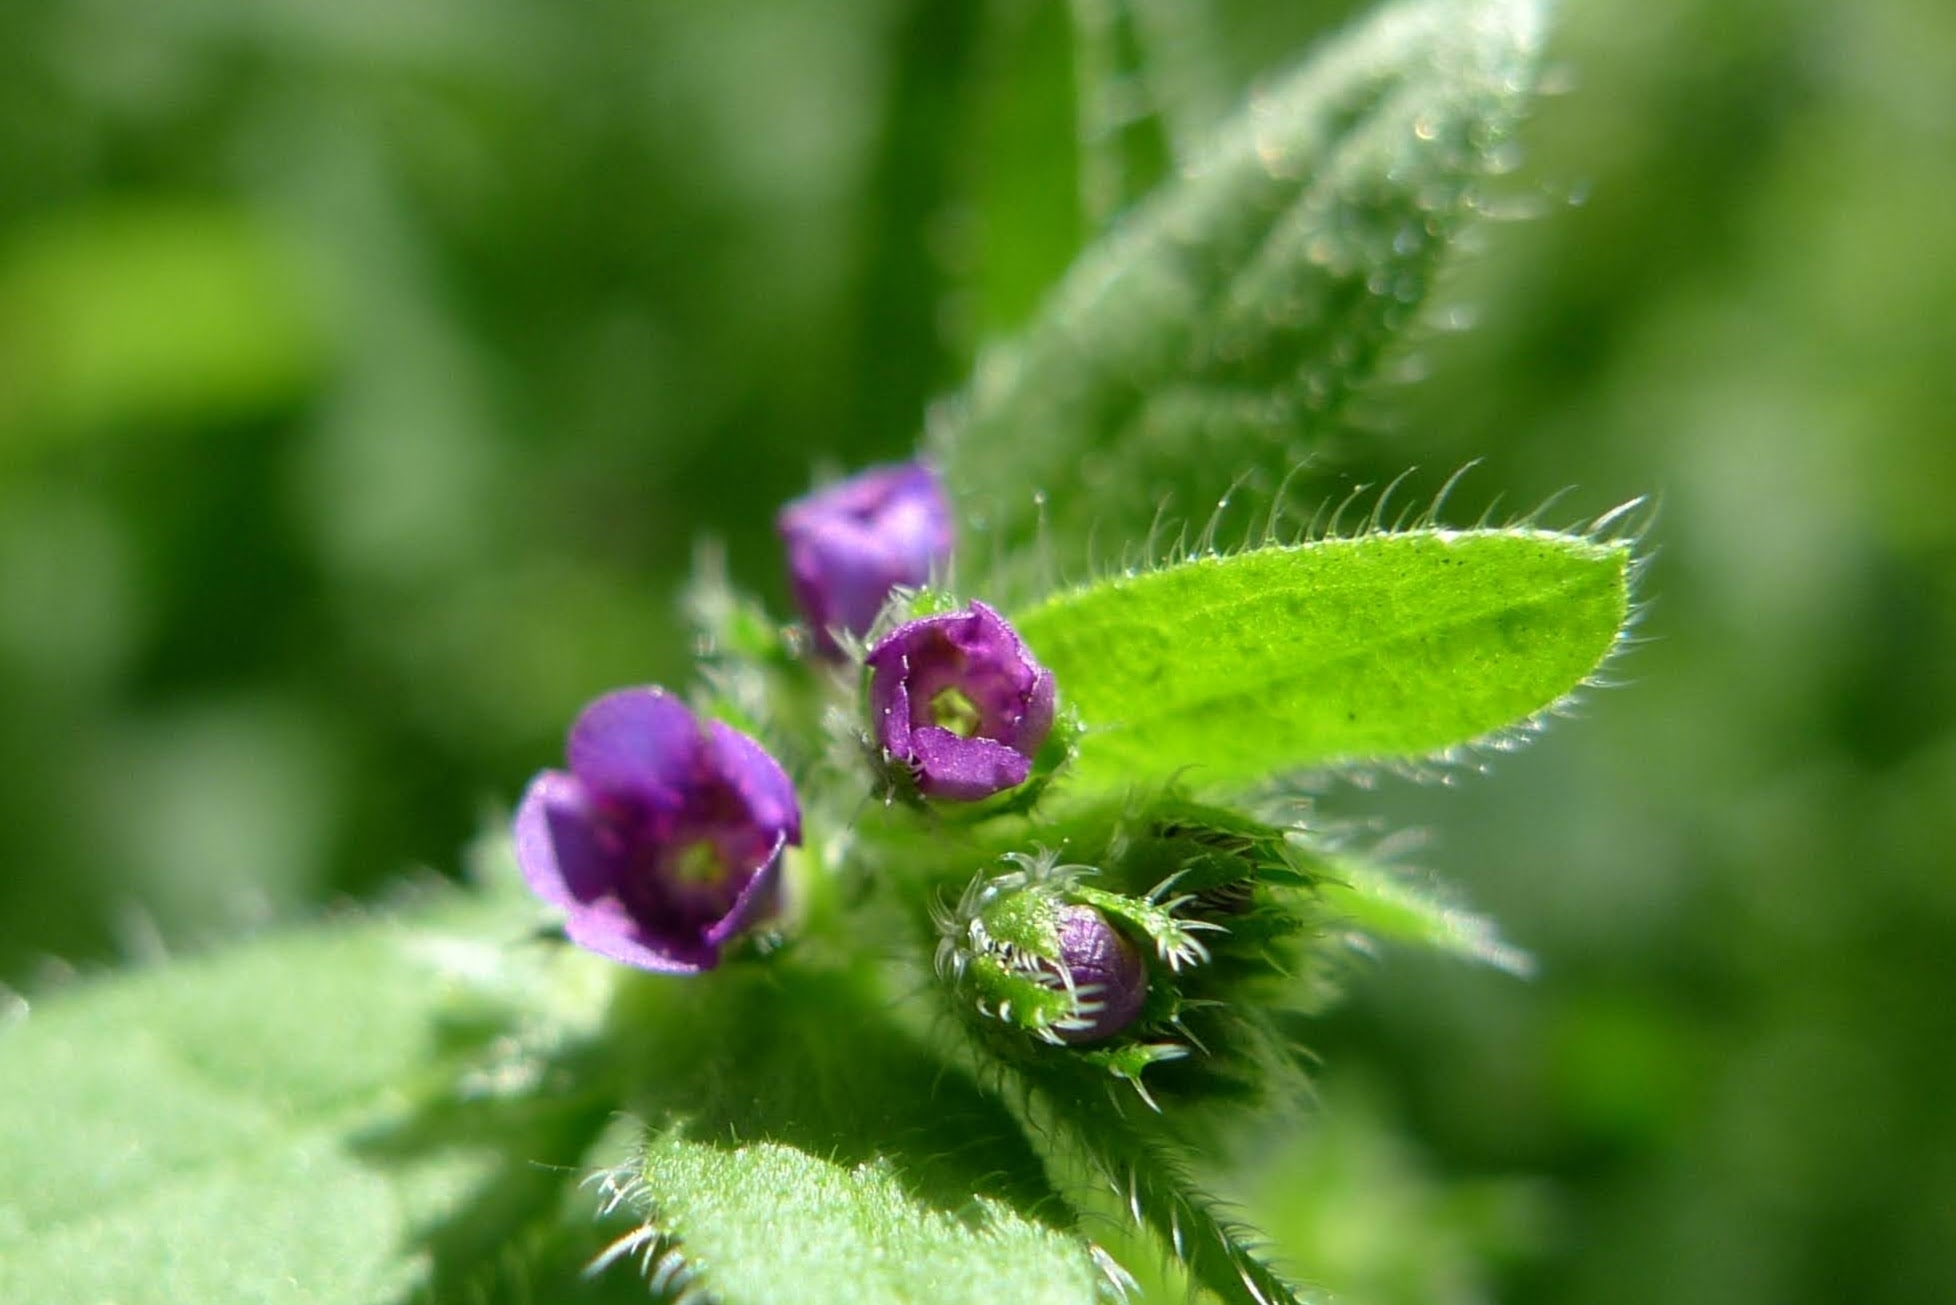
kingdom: Plantae
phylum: Tracheophyta
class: Magnoliopsida
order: Boraginales
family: Boraginaceae
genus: Asperugo
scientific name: Asperugo procumbens
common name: Madwort
